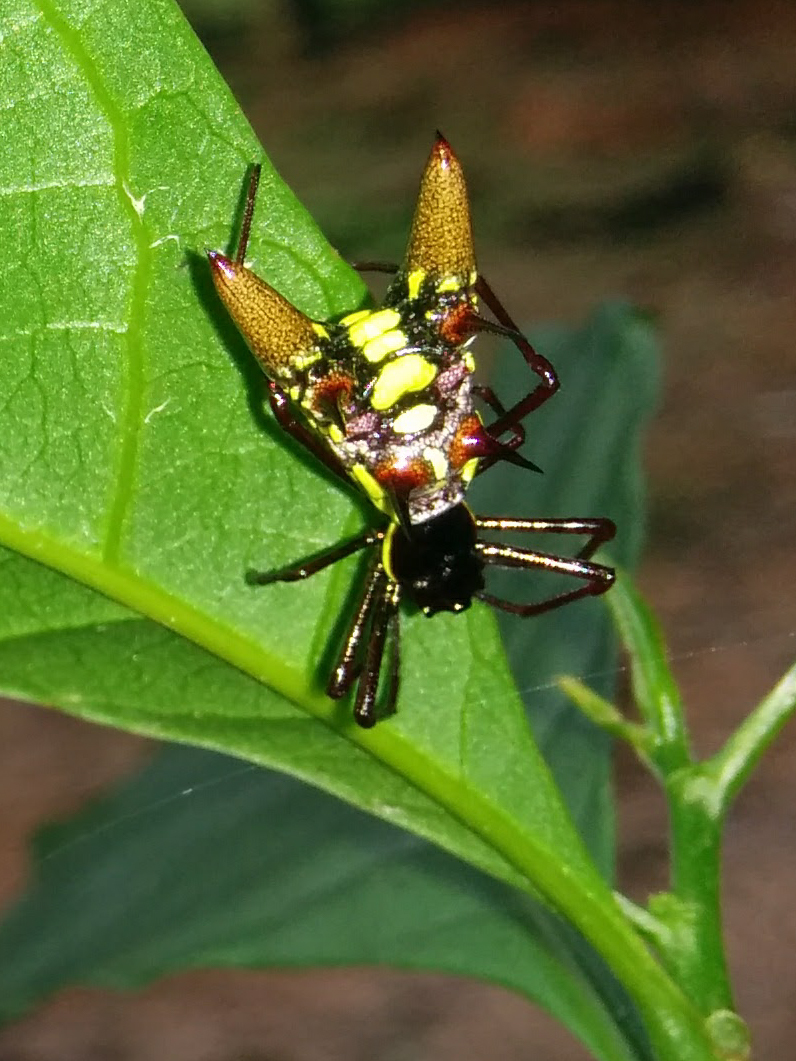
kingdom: Animalia
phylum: Arthropoda
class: Arachnida
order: Araneae
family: Araneidae
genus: Micrathena
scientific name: Micrathena sexspinosa
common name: Orb weavers
